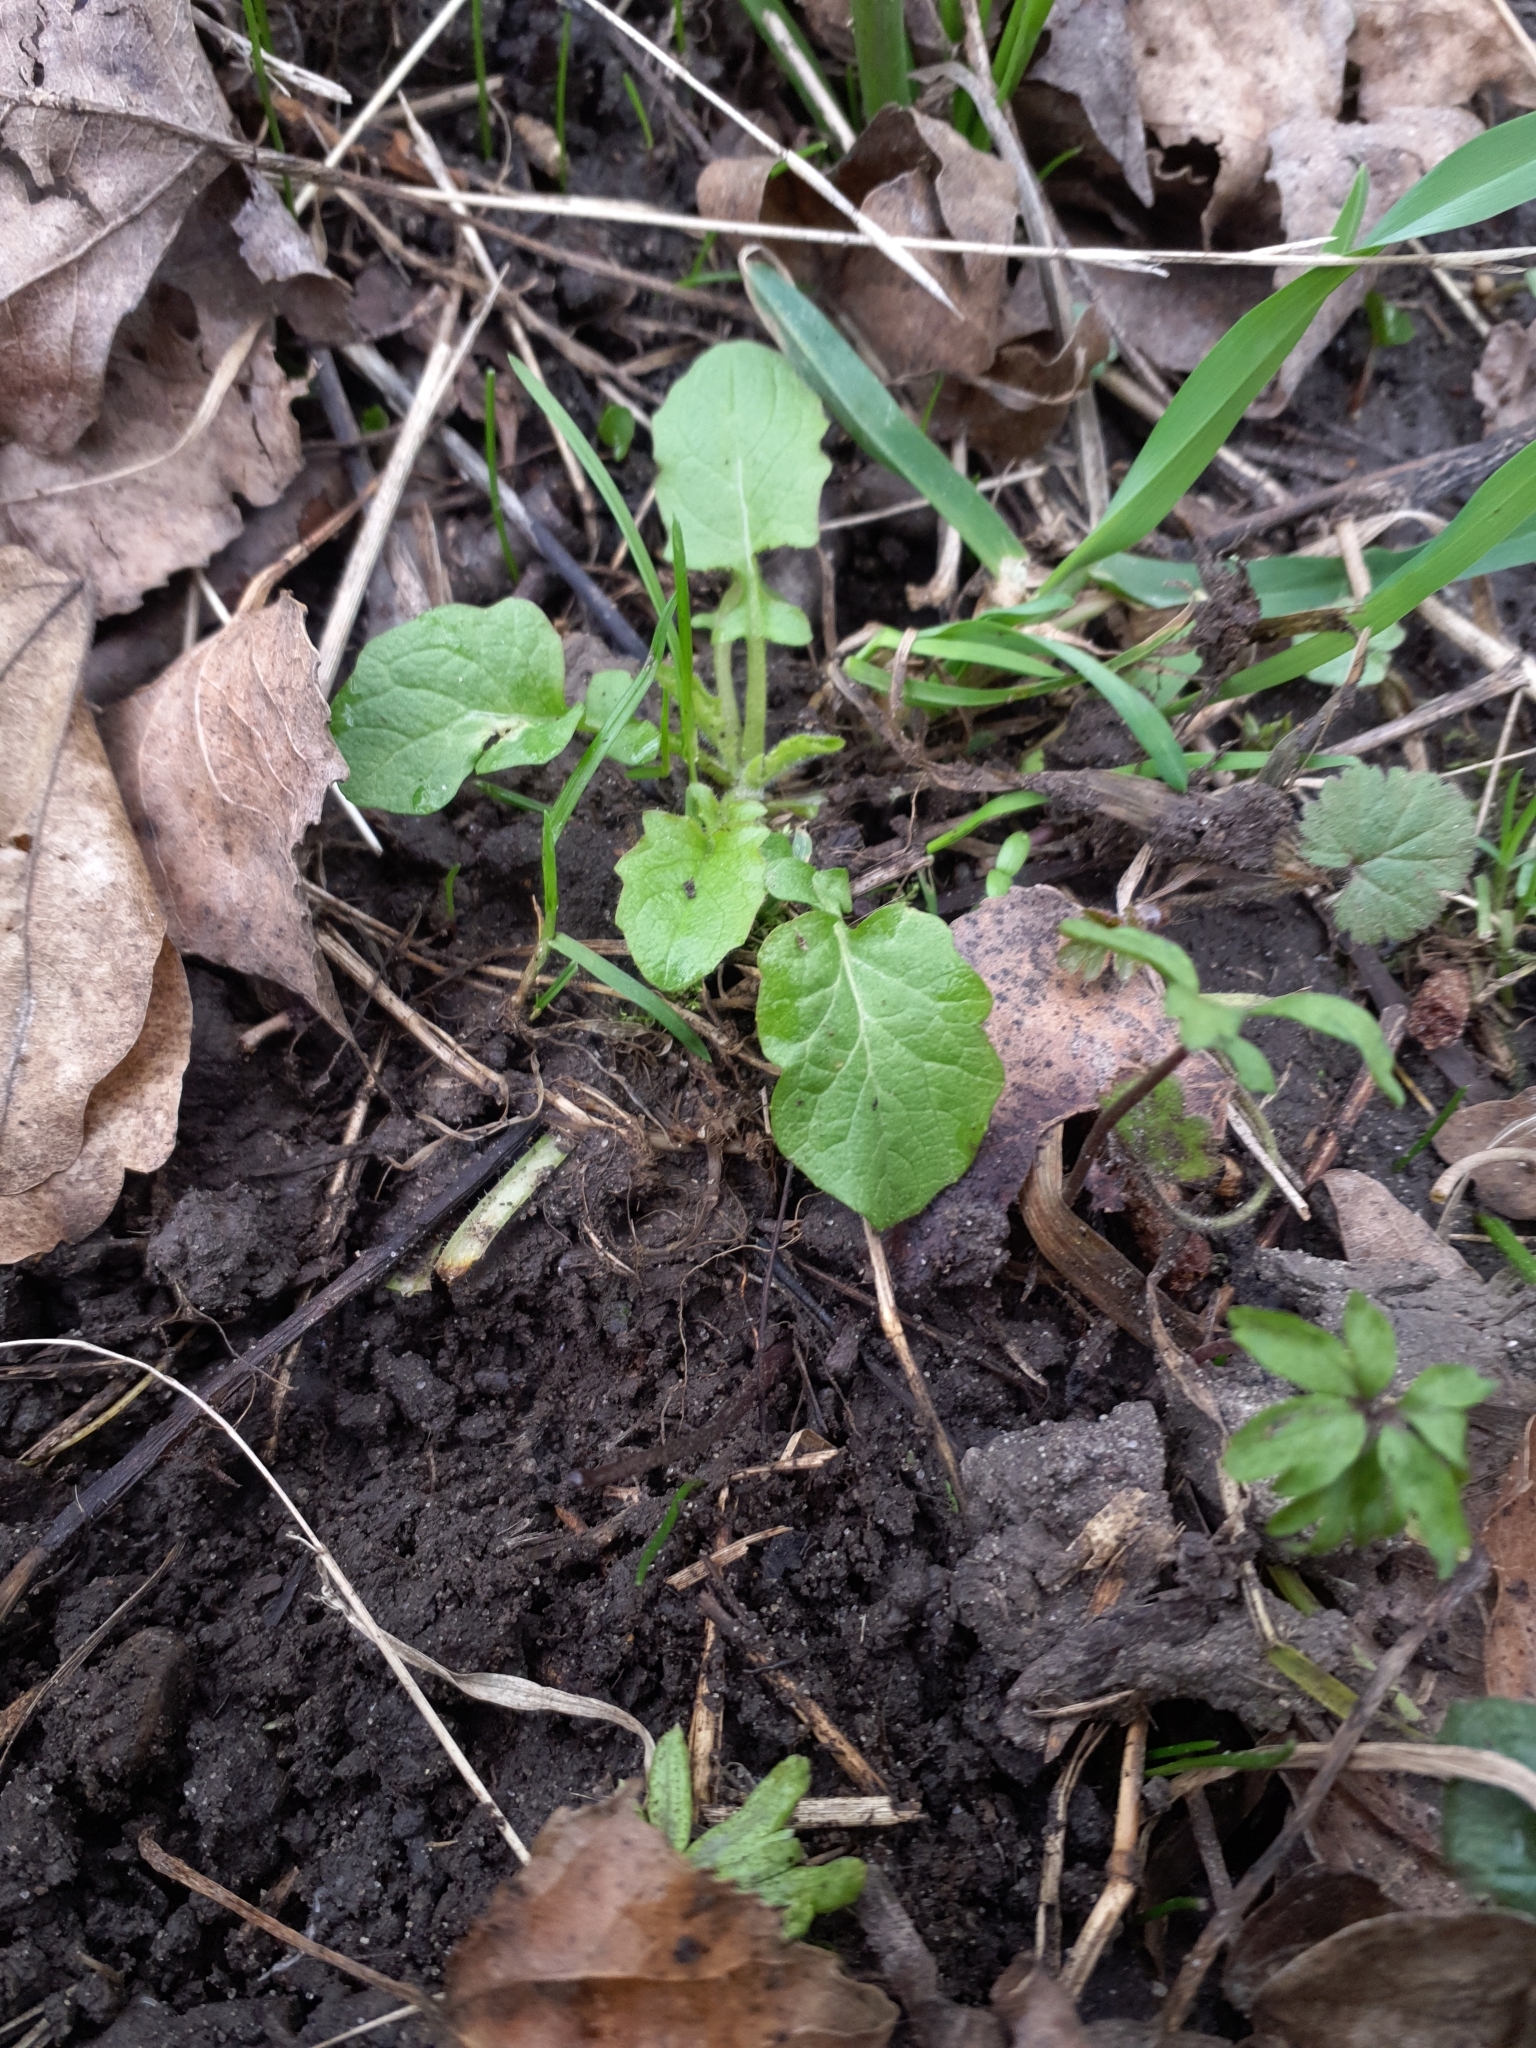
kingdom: Plantae
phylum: Tracheophyta
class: Magnoliopsida
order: Asterales
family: Asteraceae
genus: Lapsana
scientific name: Lapsana communis
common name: Nipplewort
